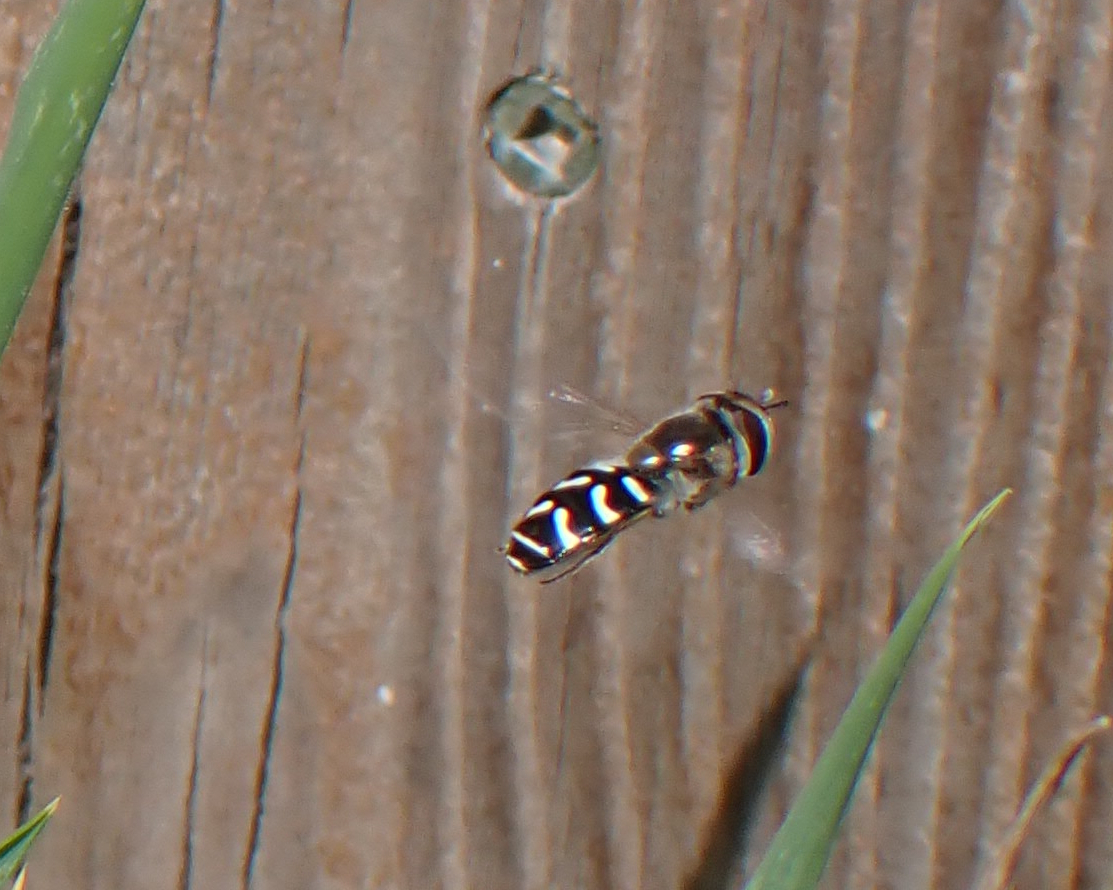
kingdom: Animalia
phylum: Arthropoda
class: Insecta
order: Diptera
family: Syrphidae
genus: Scaeva
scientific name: Scaeva affinis
